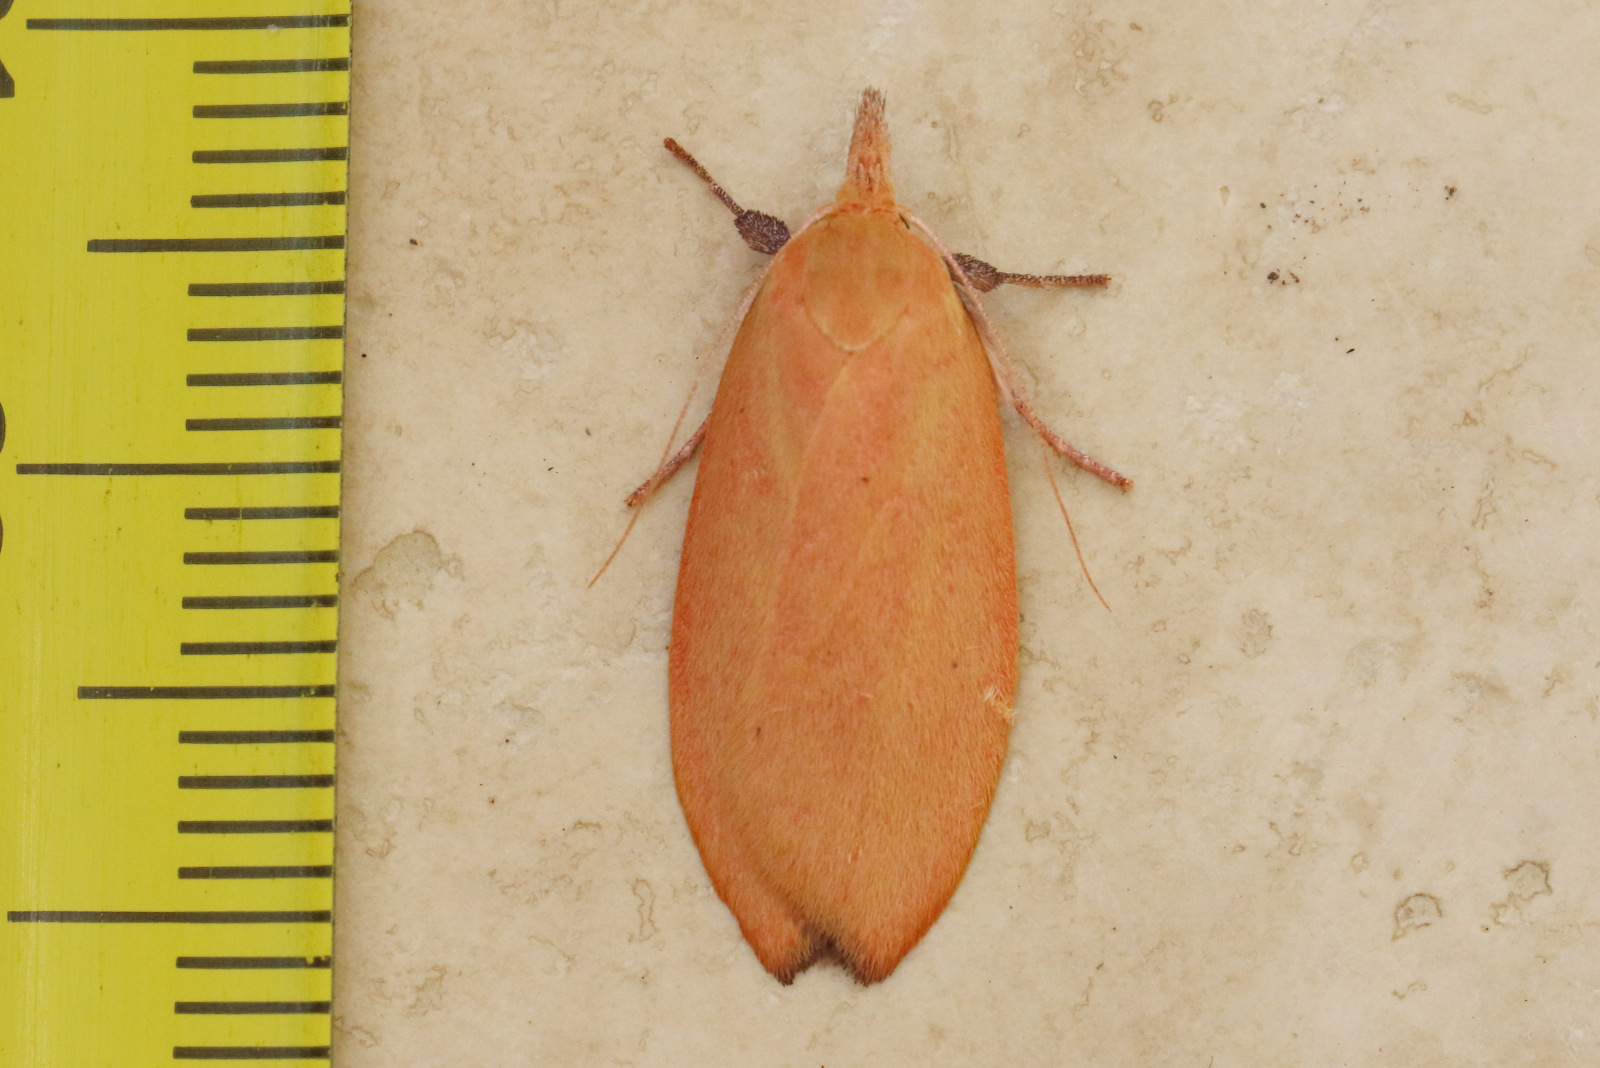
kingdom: Animalia
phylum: Arthropoda
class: Insecta
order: Lepidoptera
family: Oecophoridae
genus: Wingia
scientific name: Wingia rectiorella
